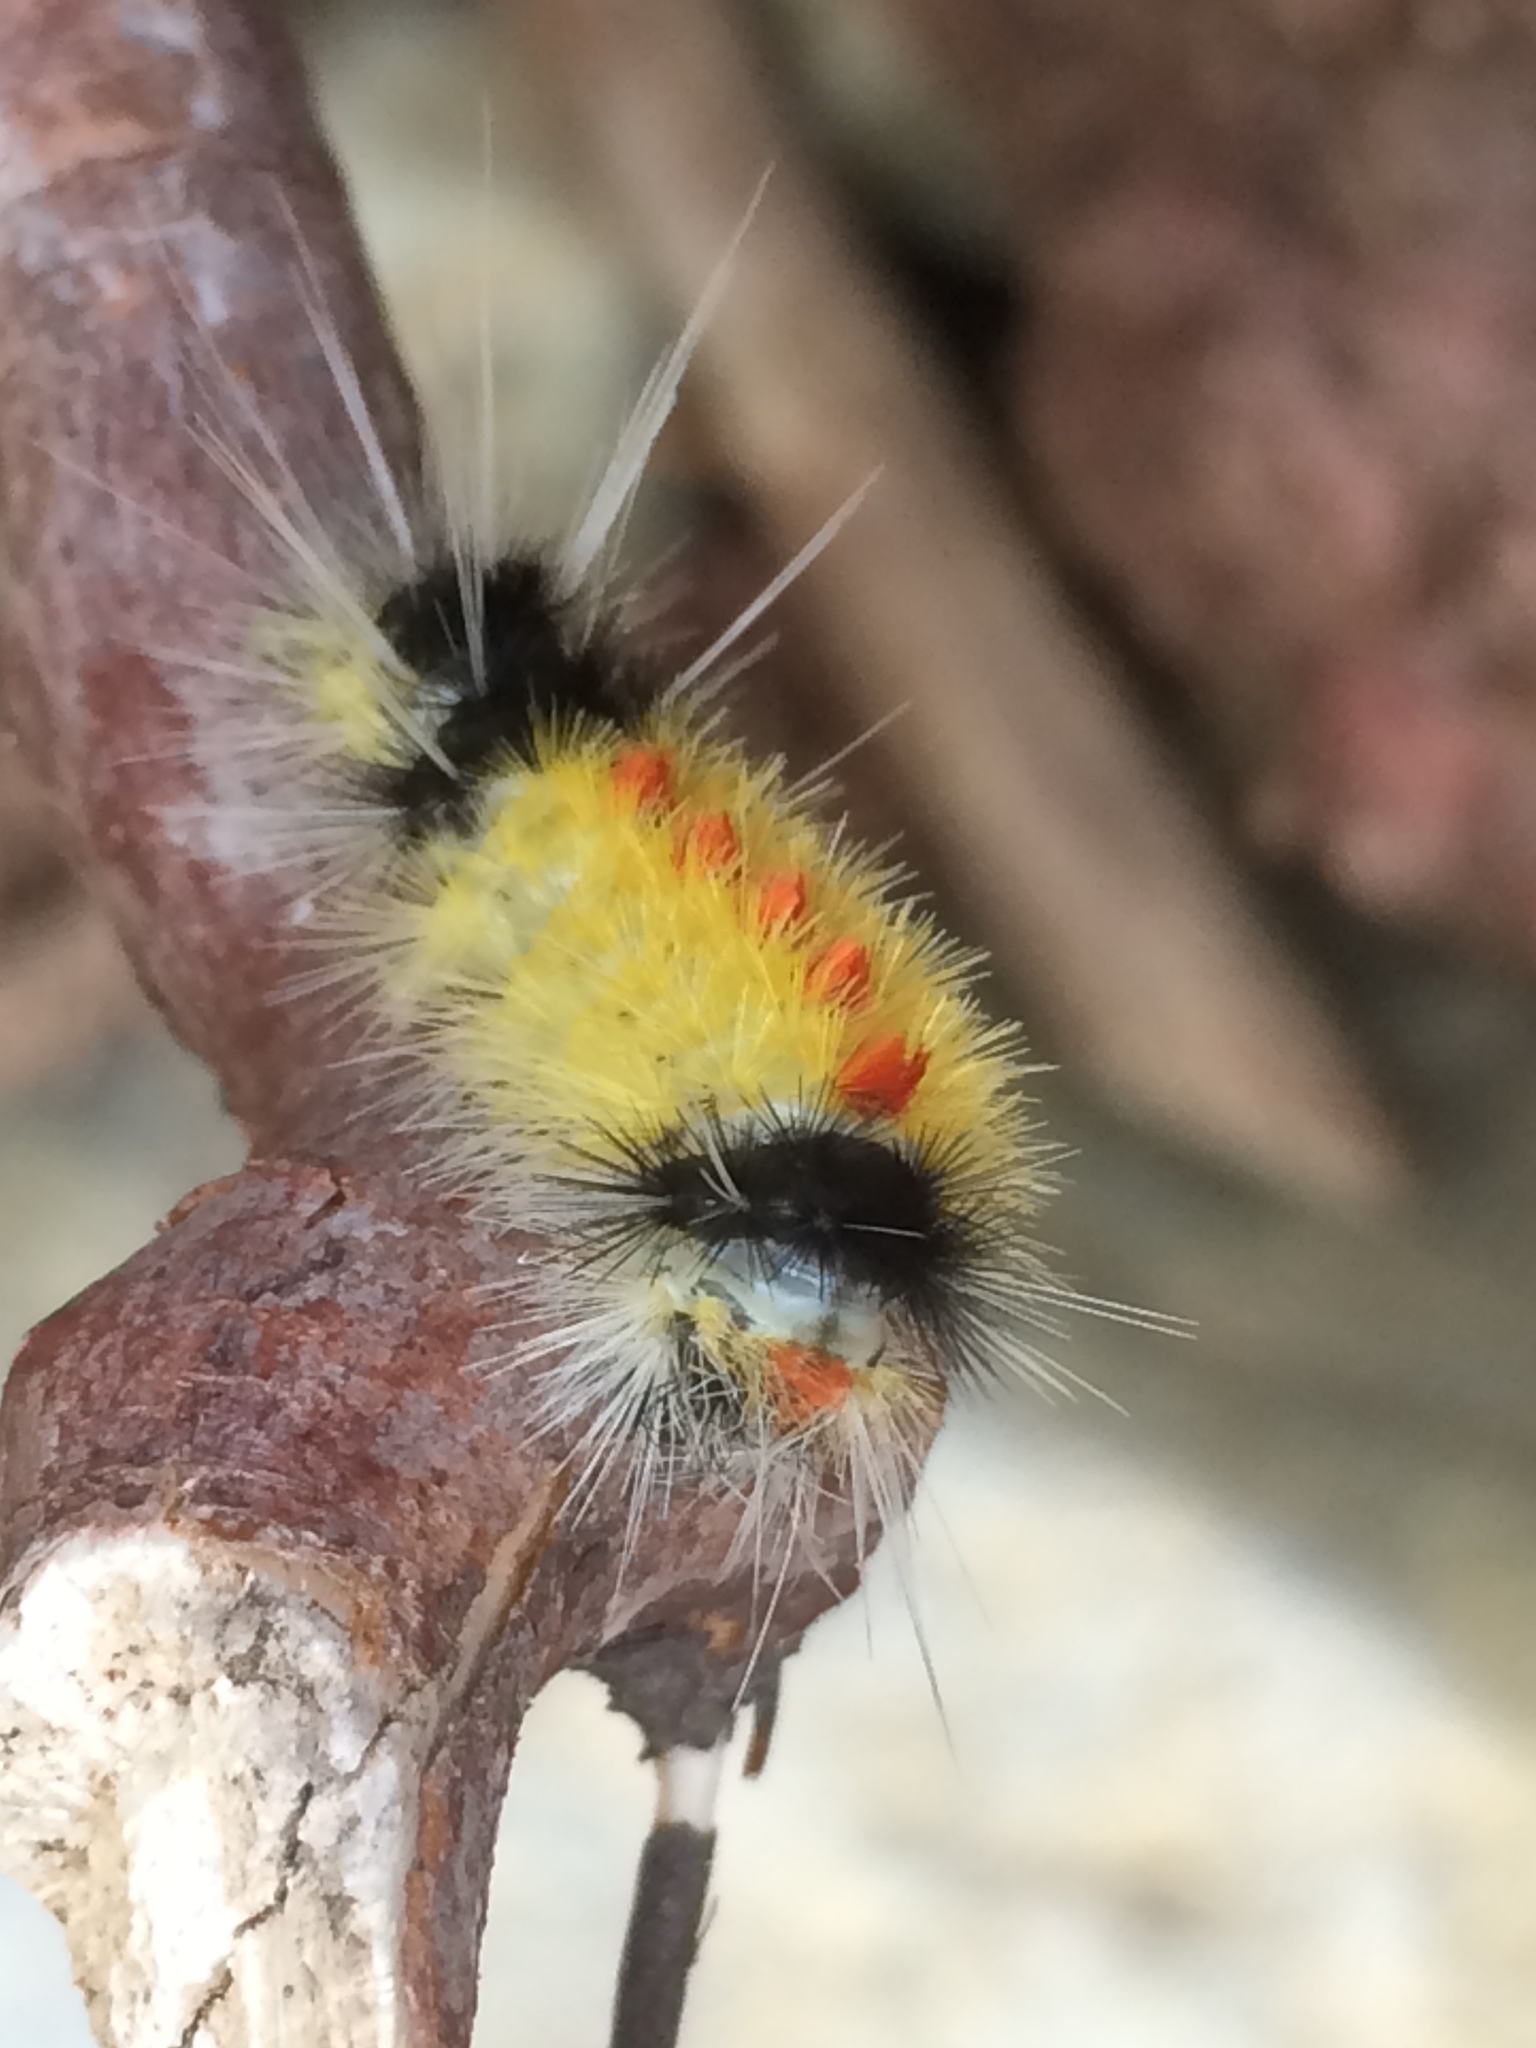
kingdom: Animalia
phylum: Arthropoda
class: Insecta
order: Lepidoptera
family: Erebidae
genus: Lophocampa
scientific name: Lophocampa maculata
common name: Spotted tussock moth
